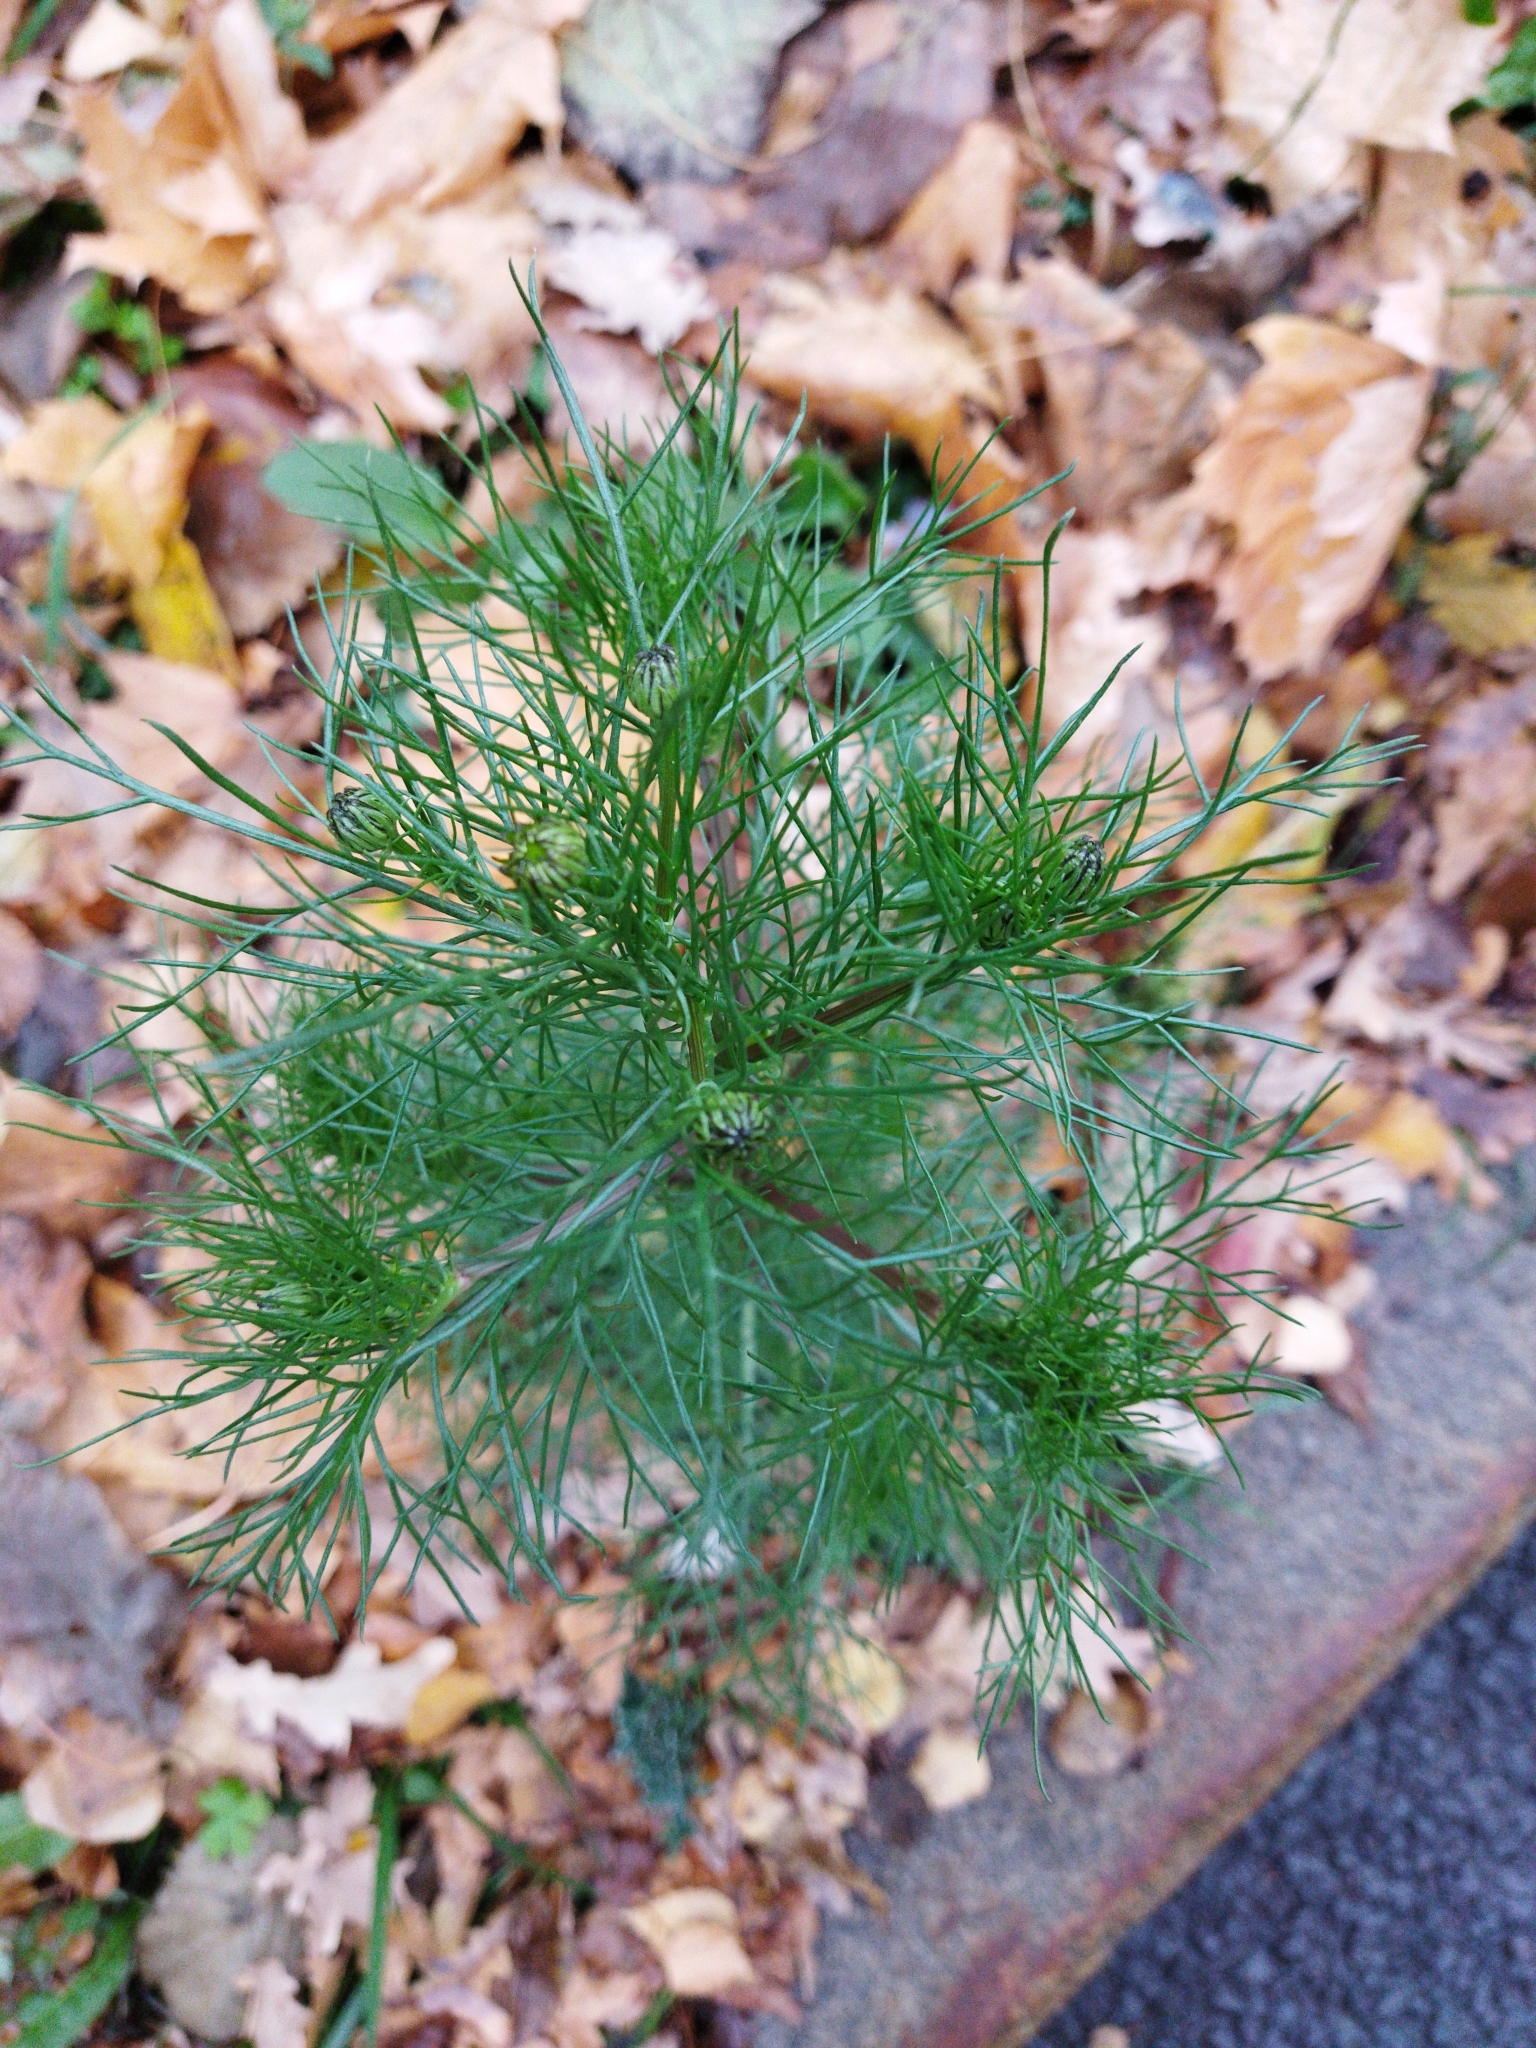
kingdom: Plantae
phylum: Tracheophyta
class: Magnoliopsida
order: Asterales
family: Asteraceae
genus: Tripleurospermum
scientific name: Tripleurospermum inodorum
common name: Scentless mayweed
